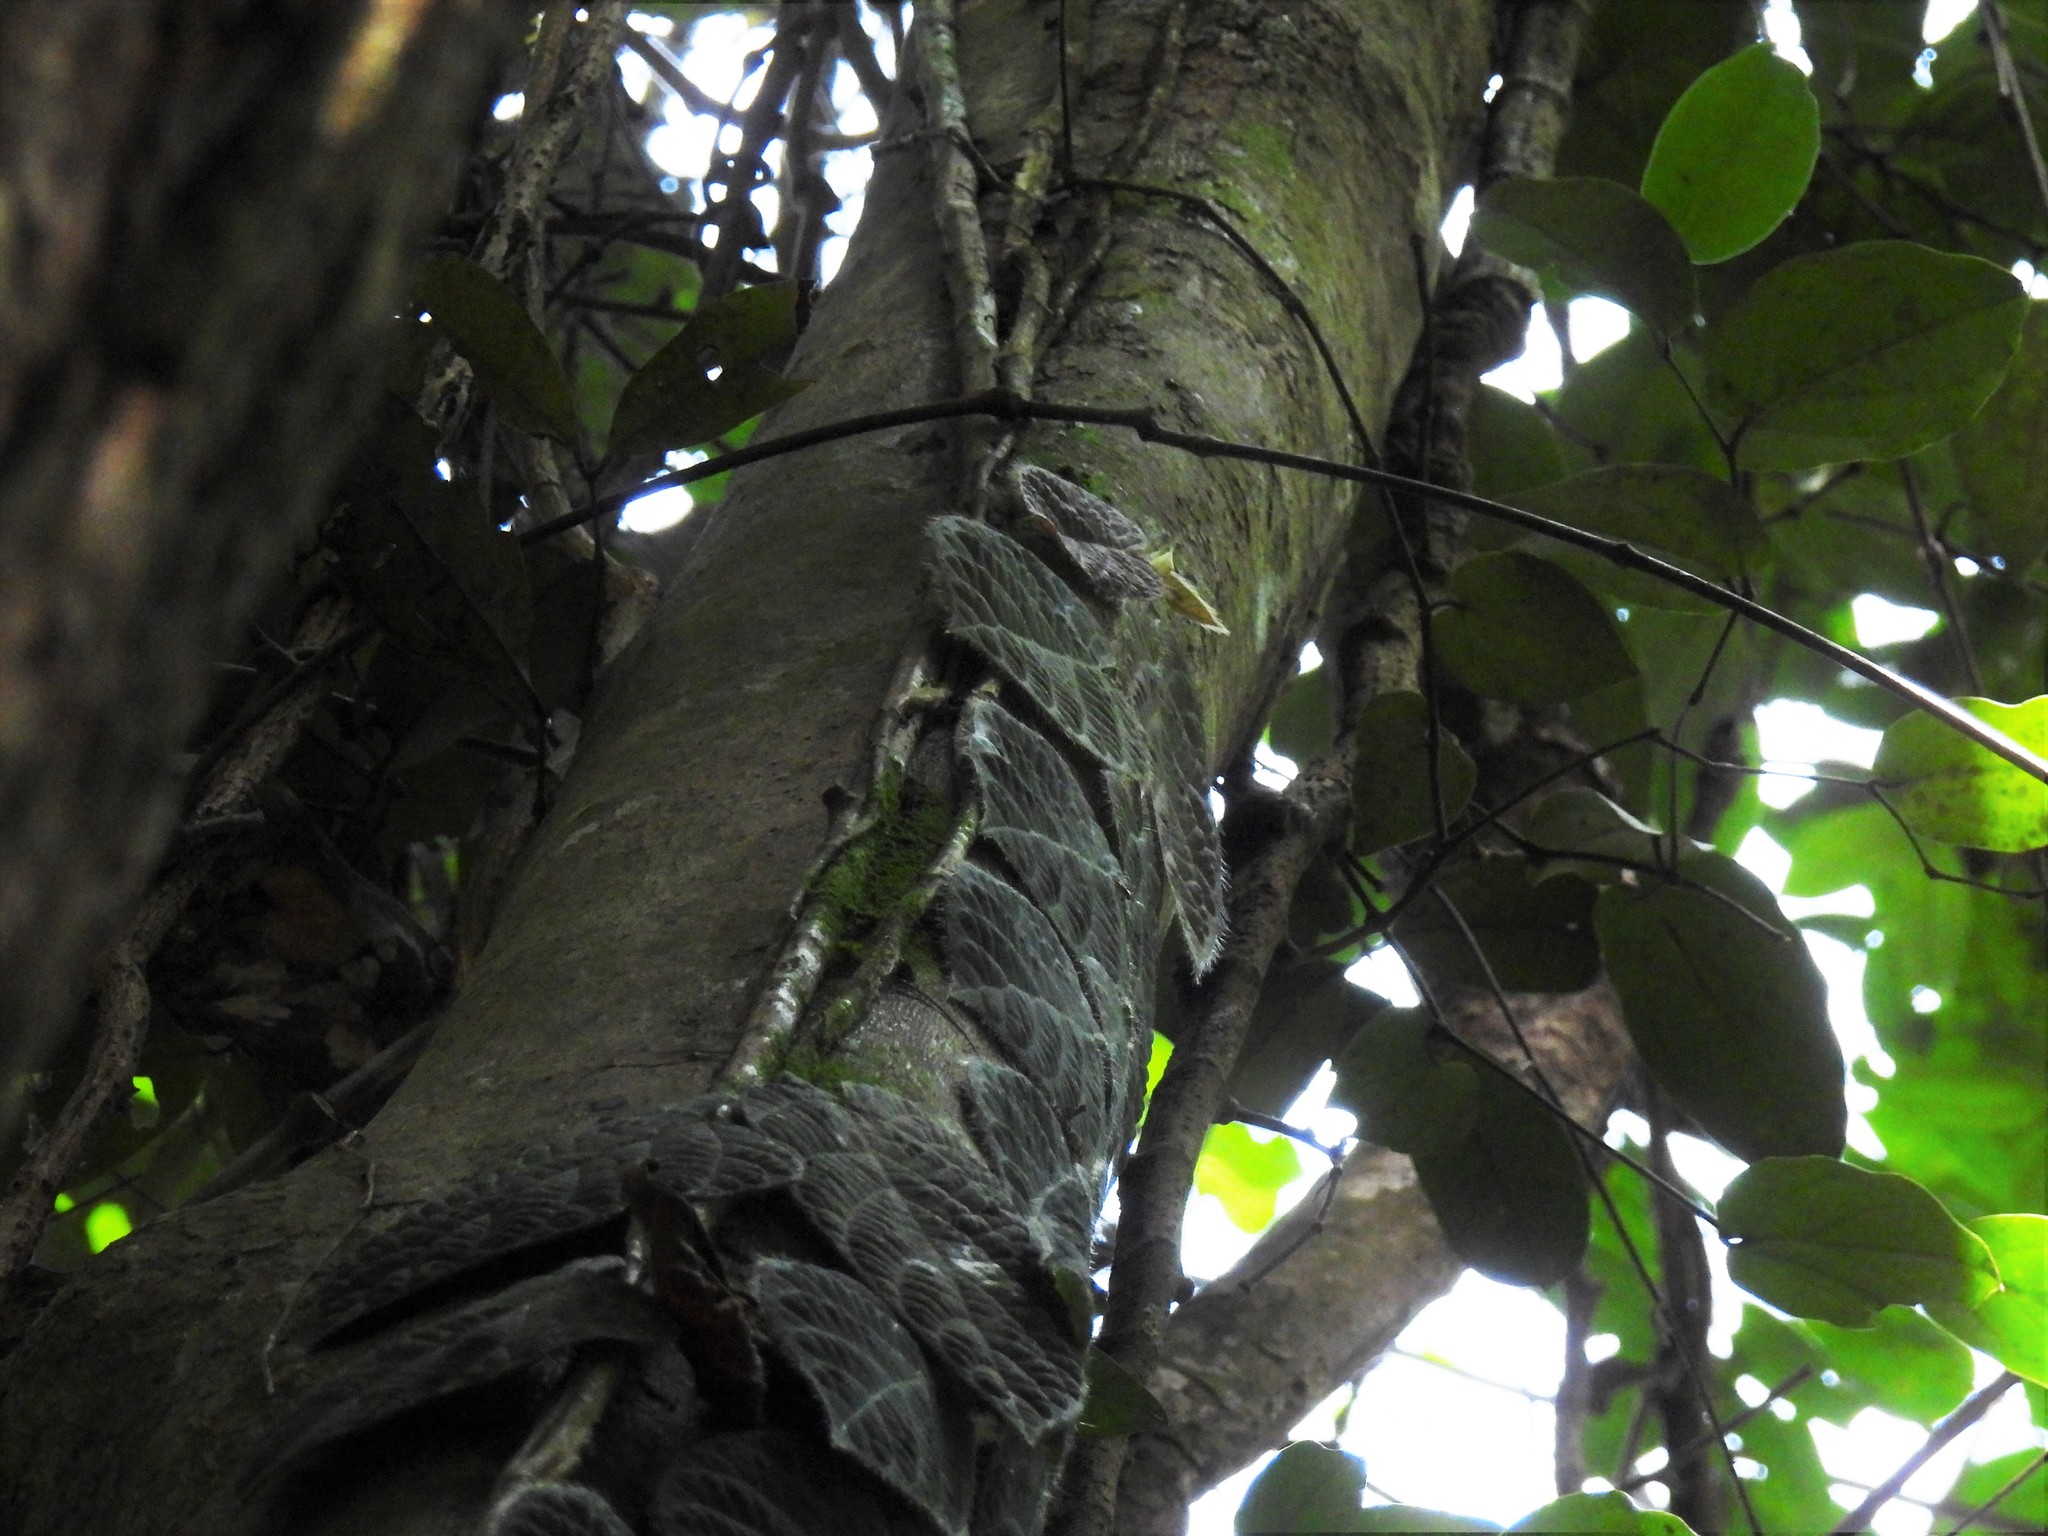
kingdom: Plantae
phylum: Tracheophyta
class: Magnoliopsida
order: Rosales
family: Moraceae
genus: Ficus
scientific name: Ficus villosa
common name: Villous fig
